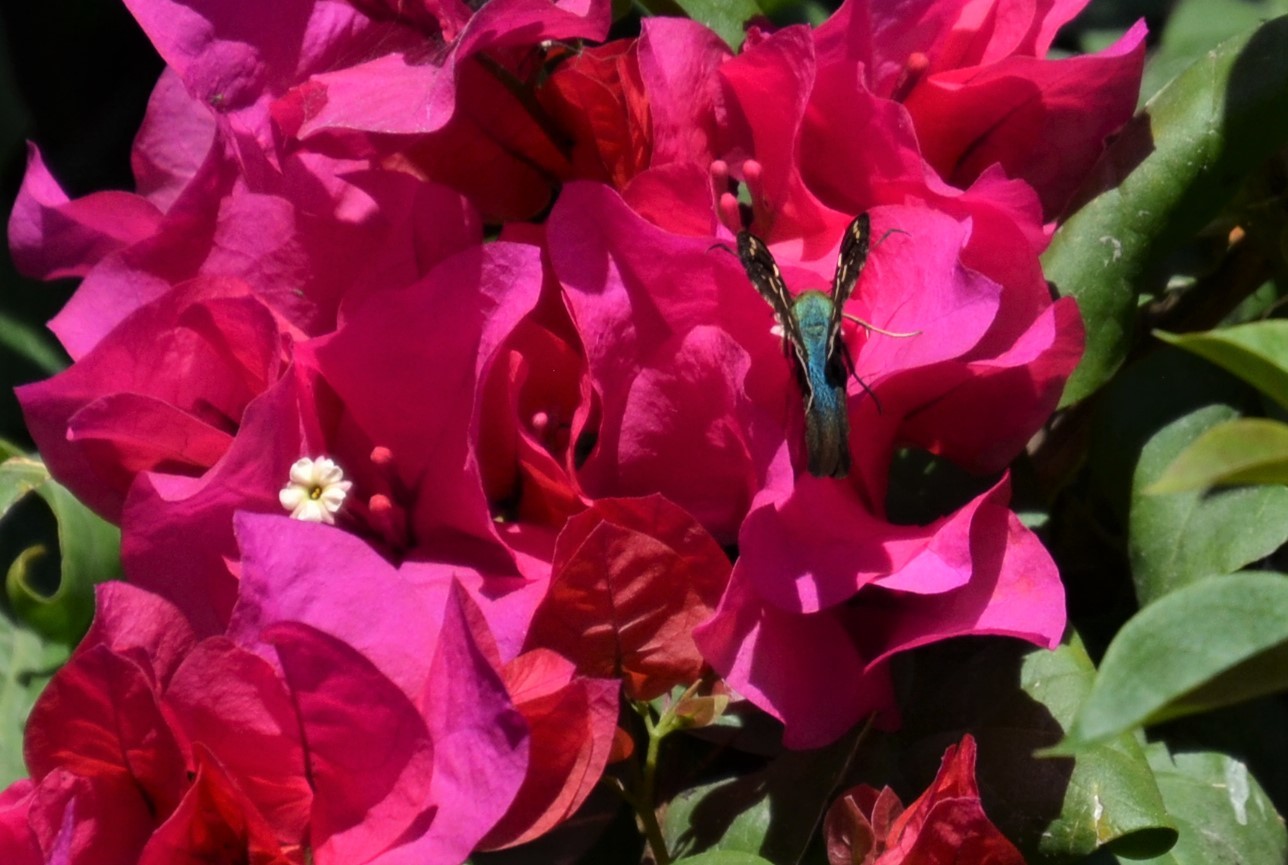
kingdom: Animalia
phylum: Arthropoda
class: Insecta
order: Lepidoptera
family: Hesperiidae
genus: Urbanus
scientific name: Urbanus proteus
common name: Long-tailed skipper
